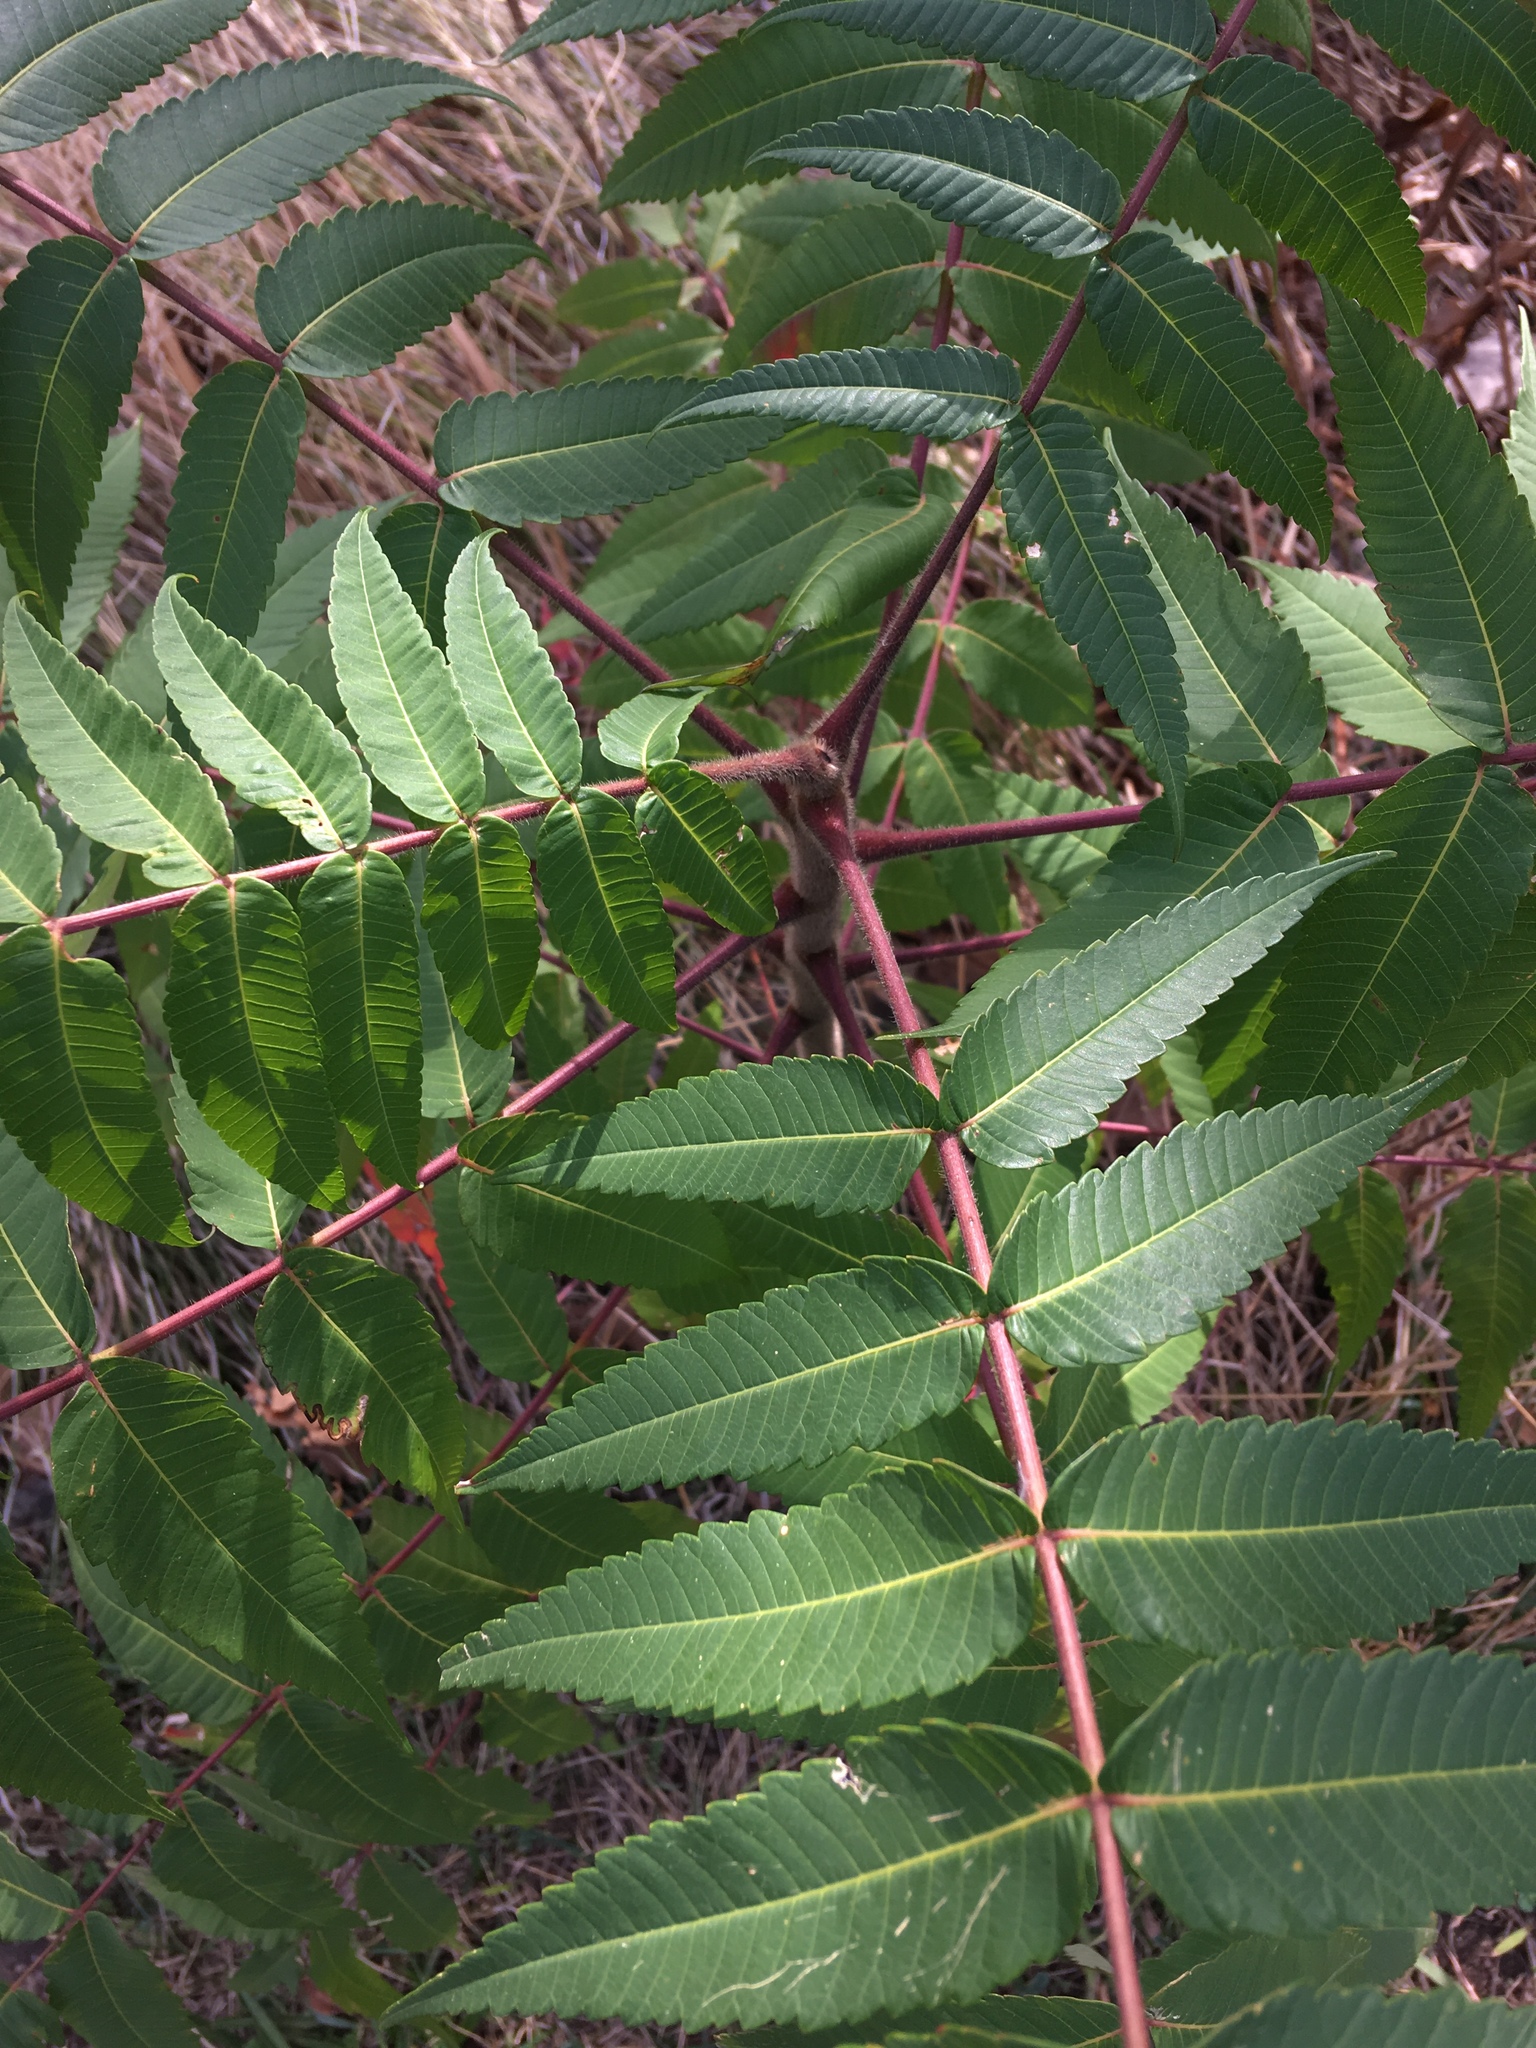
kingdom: Plantae
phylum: Tracheophyta
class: Magnoliopsida
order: Sapindales
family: Anacardiaceae
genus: Rhus
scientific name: Rhus typhina
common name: Staghorn sumac
